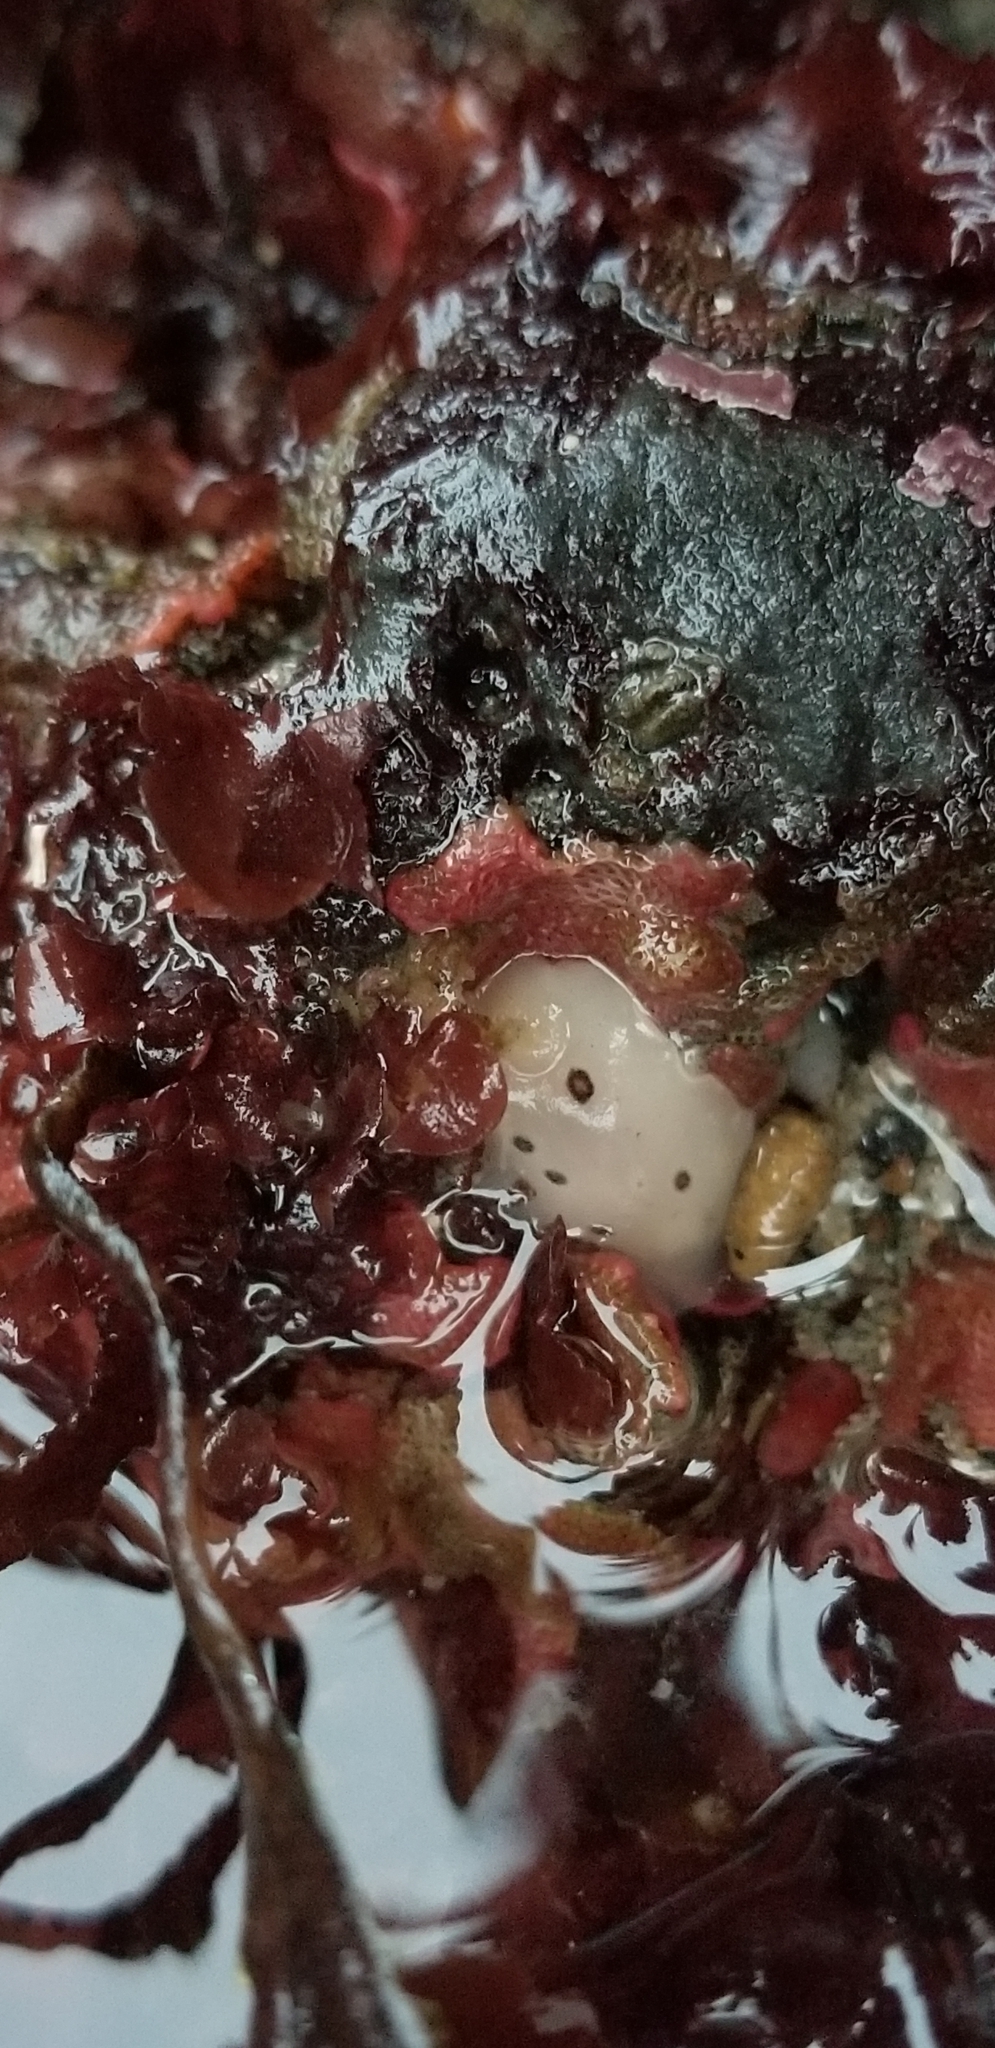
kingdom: Animalia
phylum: Mollusca
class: Gastropoda
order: Nudibranchia
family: Discodorididae
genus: Diaulula
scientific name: Diaulula sandiegensis
